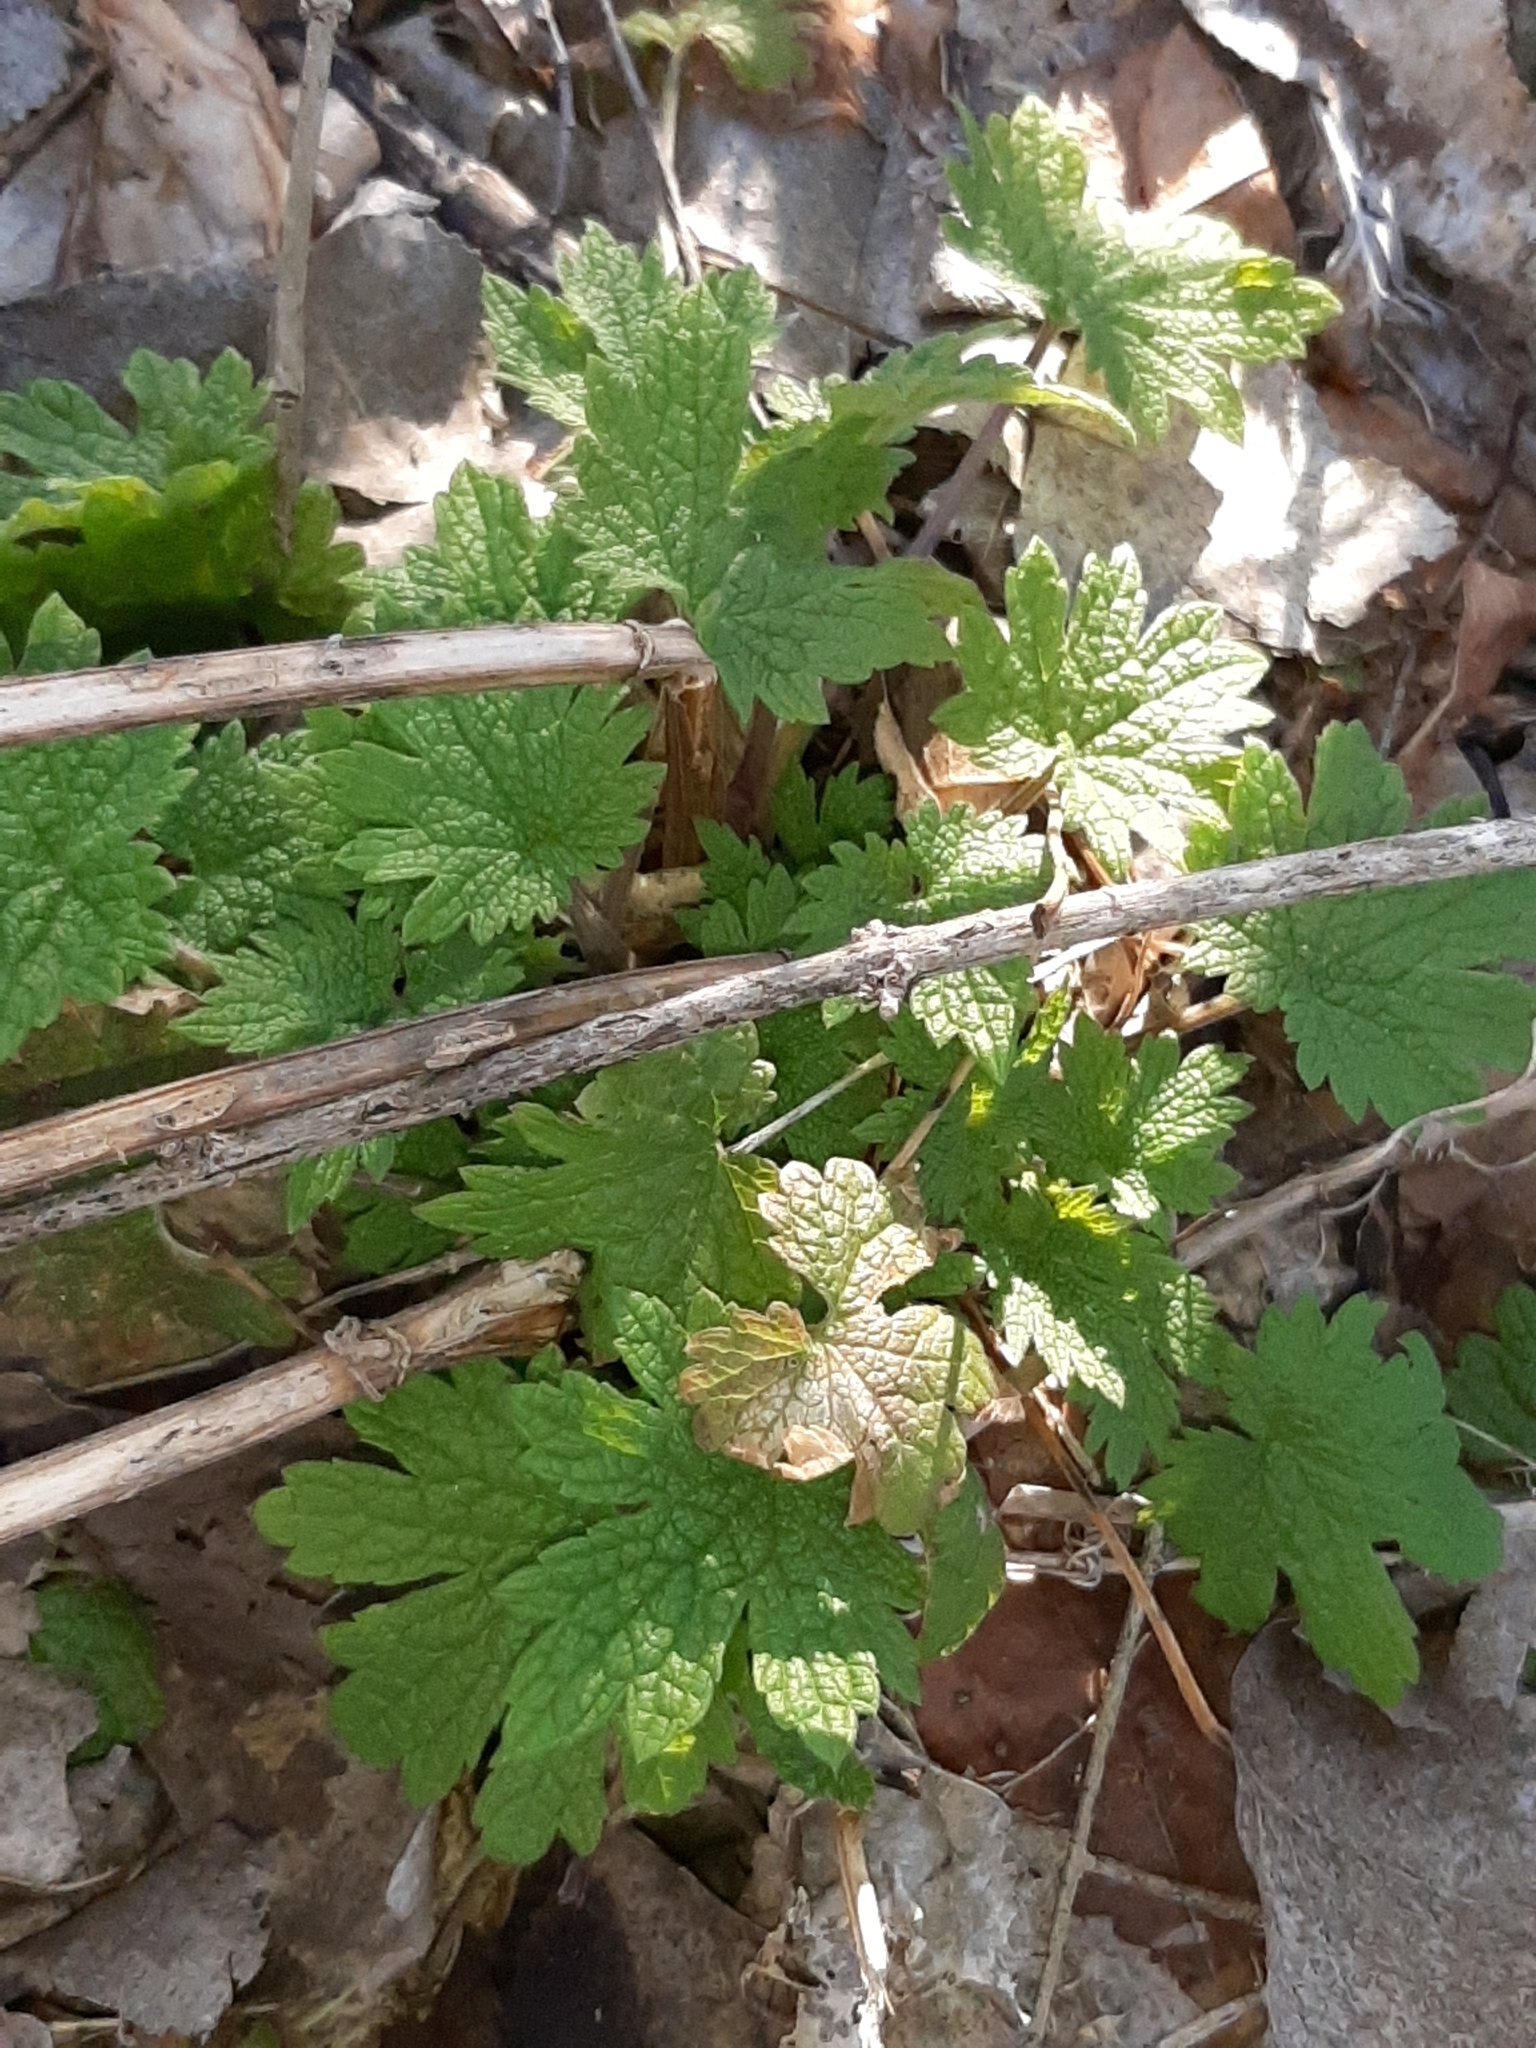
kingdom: Plantae
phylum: Tracheophyta
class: Magnoliopsida
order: Lamiales
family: Lamiaceae
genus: Leonurus
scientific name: Leonurus cardiaca
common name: Motherwort
